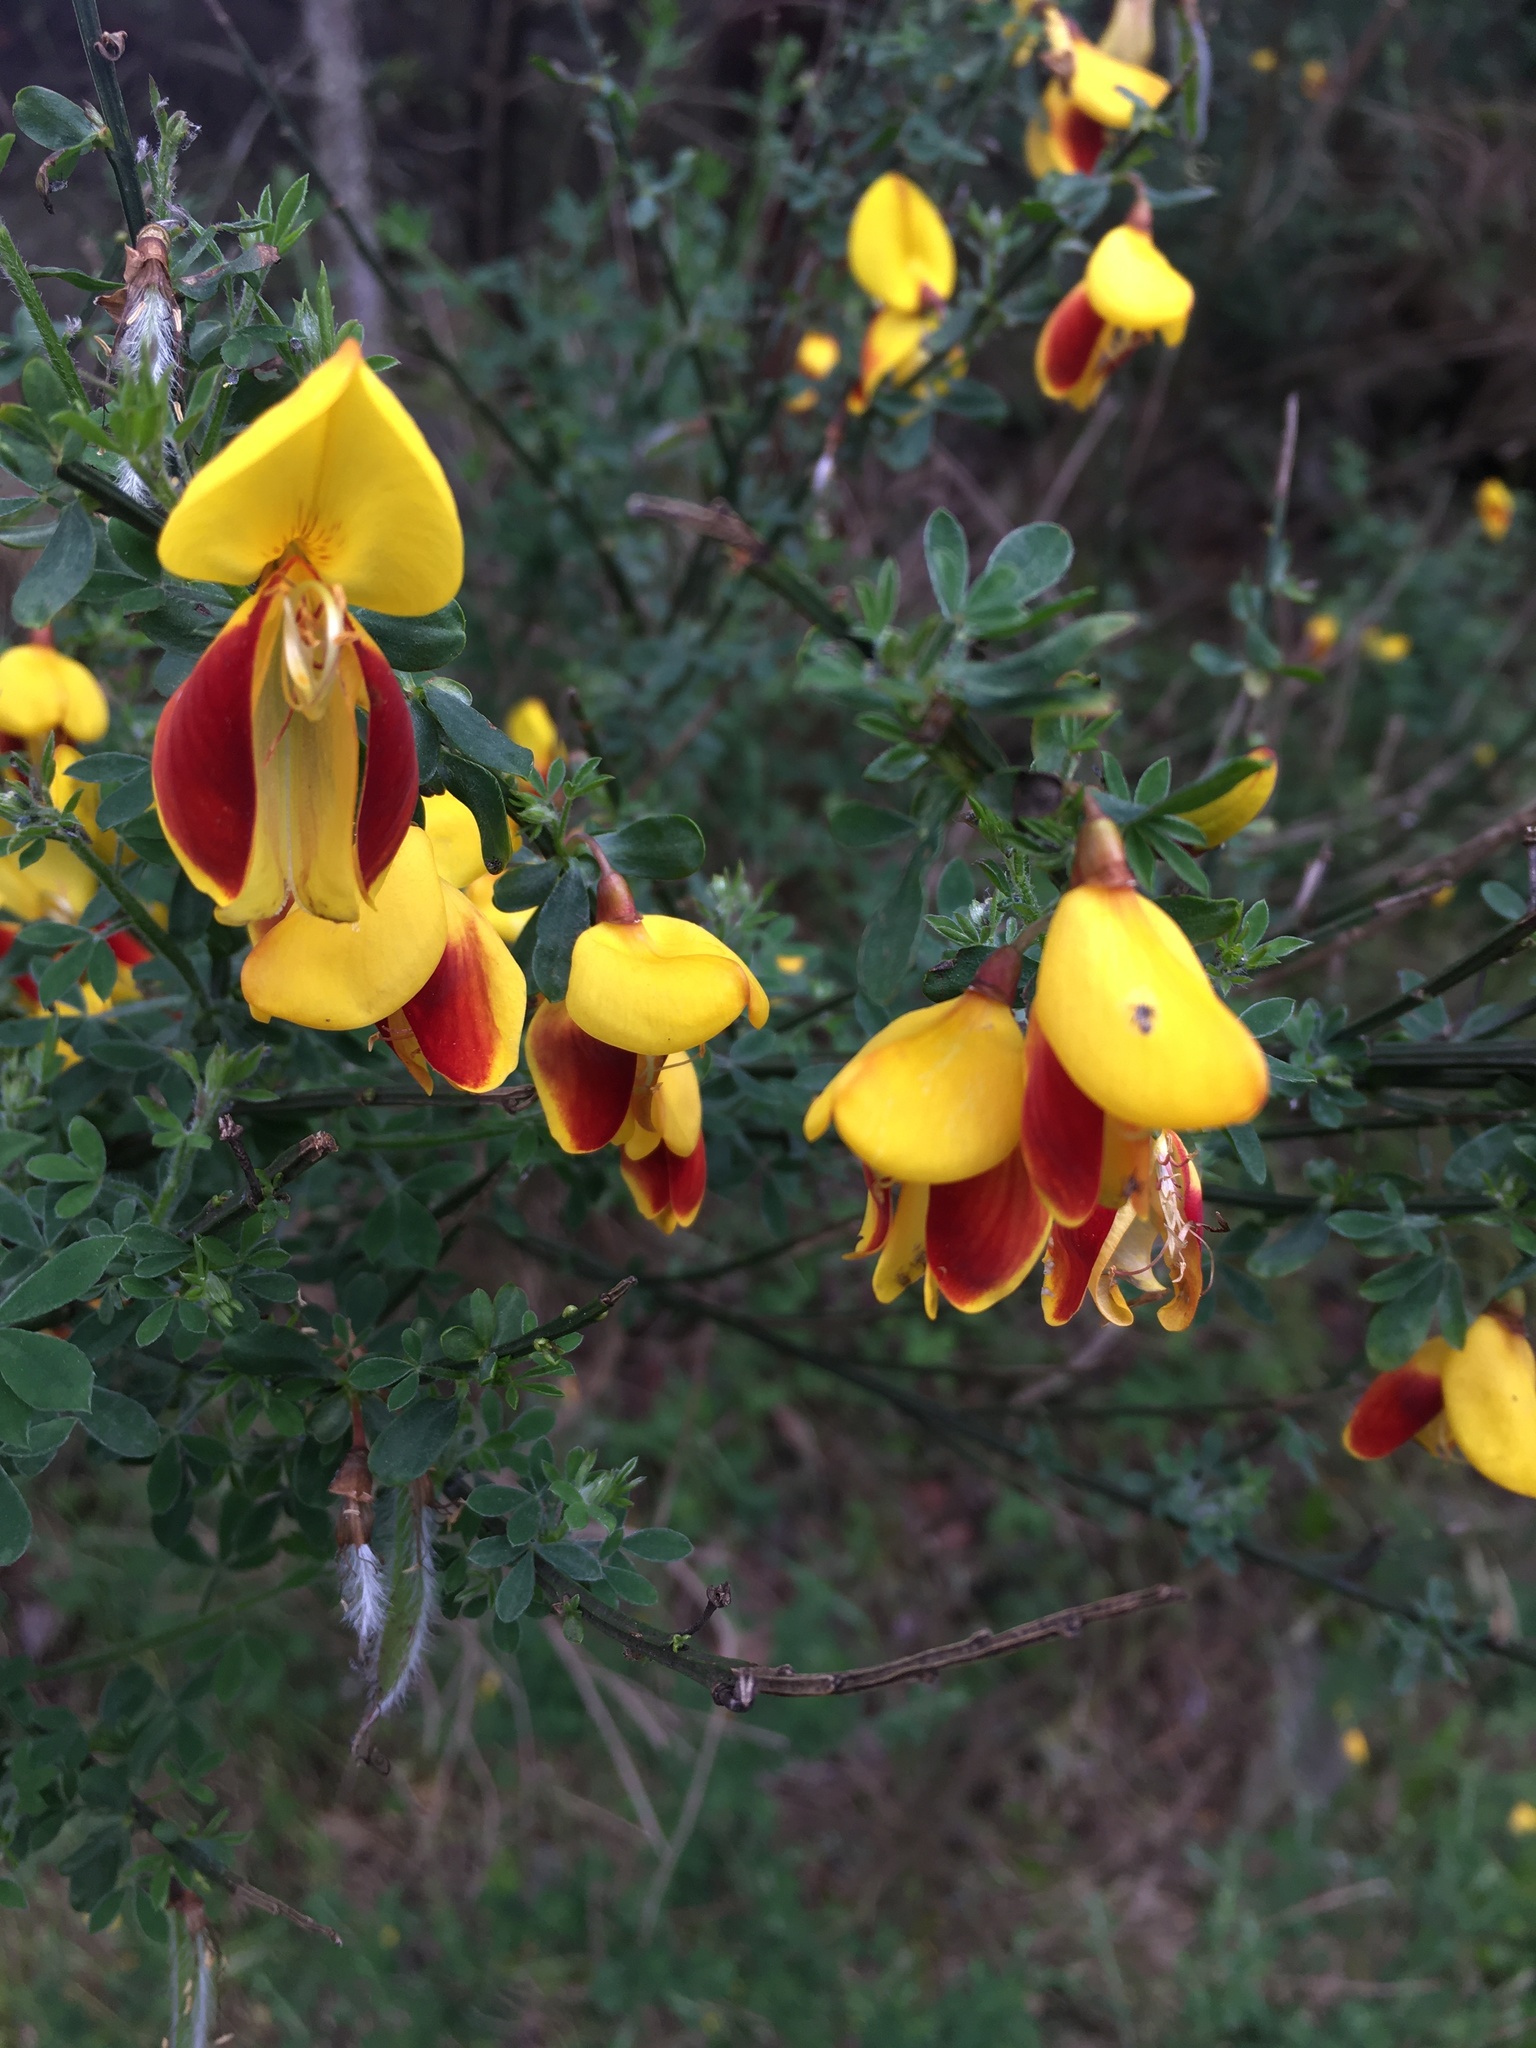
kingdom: Plantae
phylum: Tracheophyta
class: Magnoliopsida
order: Fabales
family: Fabaceae
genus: Cytisus
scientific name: Cytisus scoparius
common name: Scotch broom
